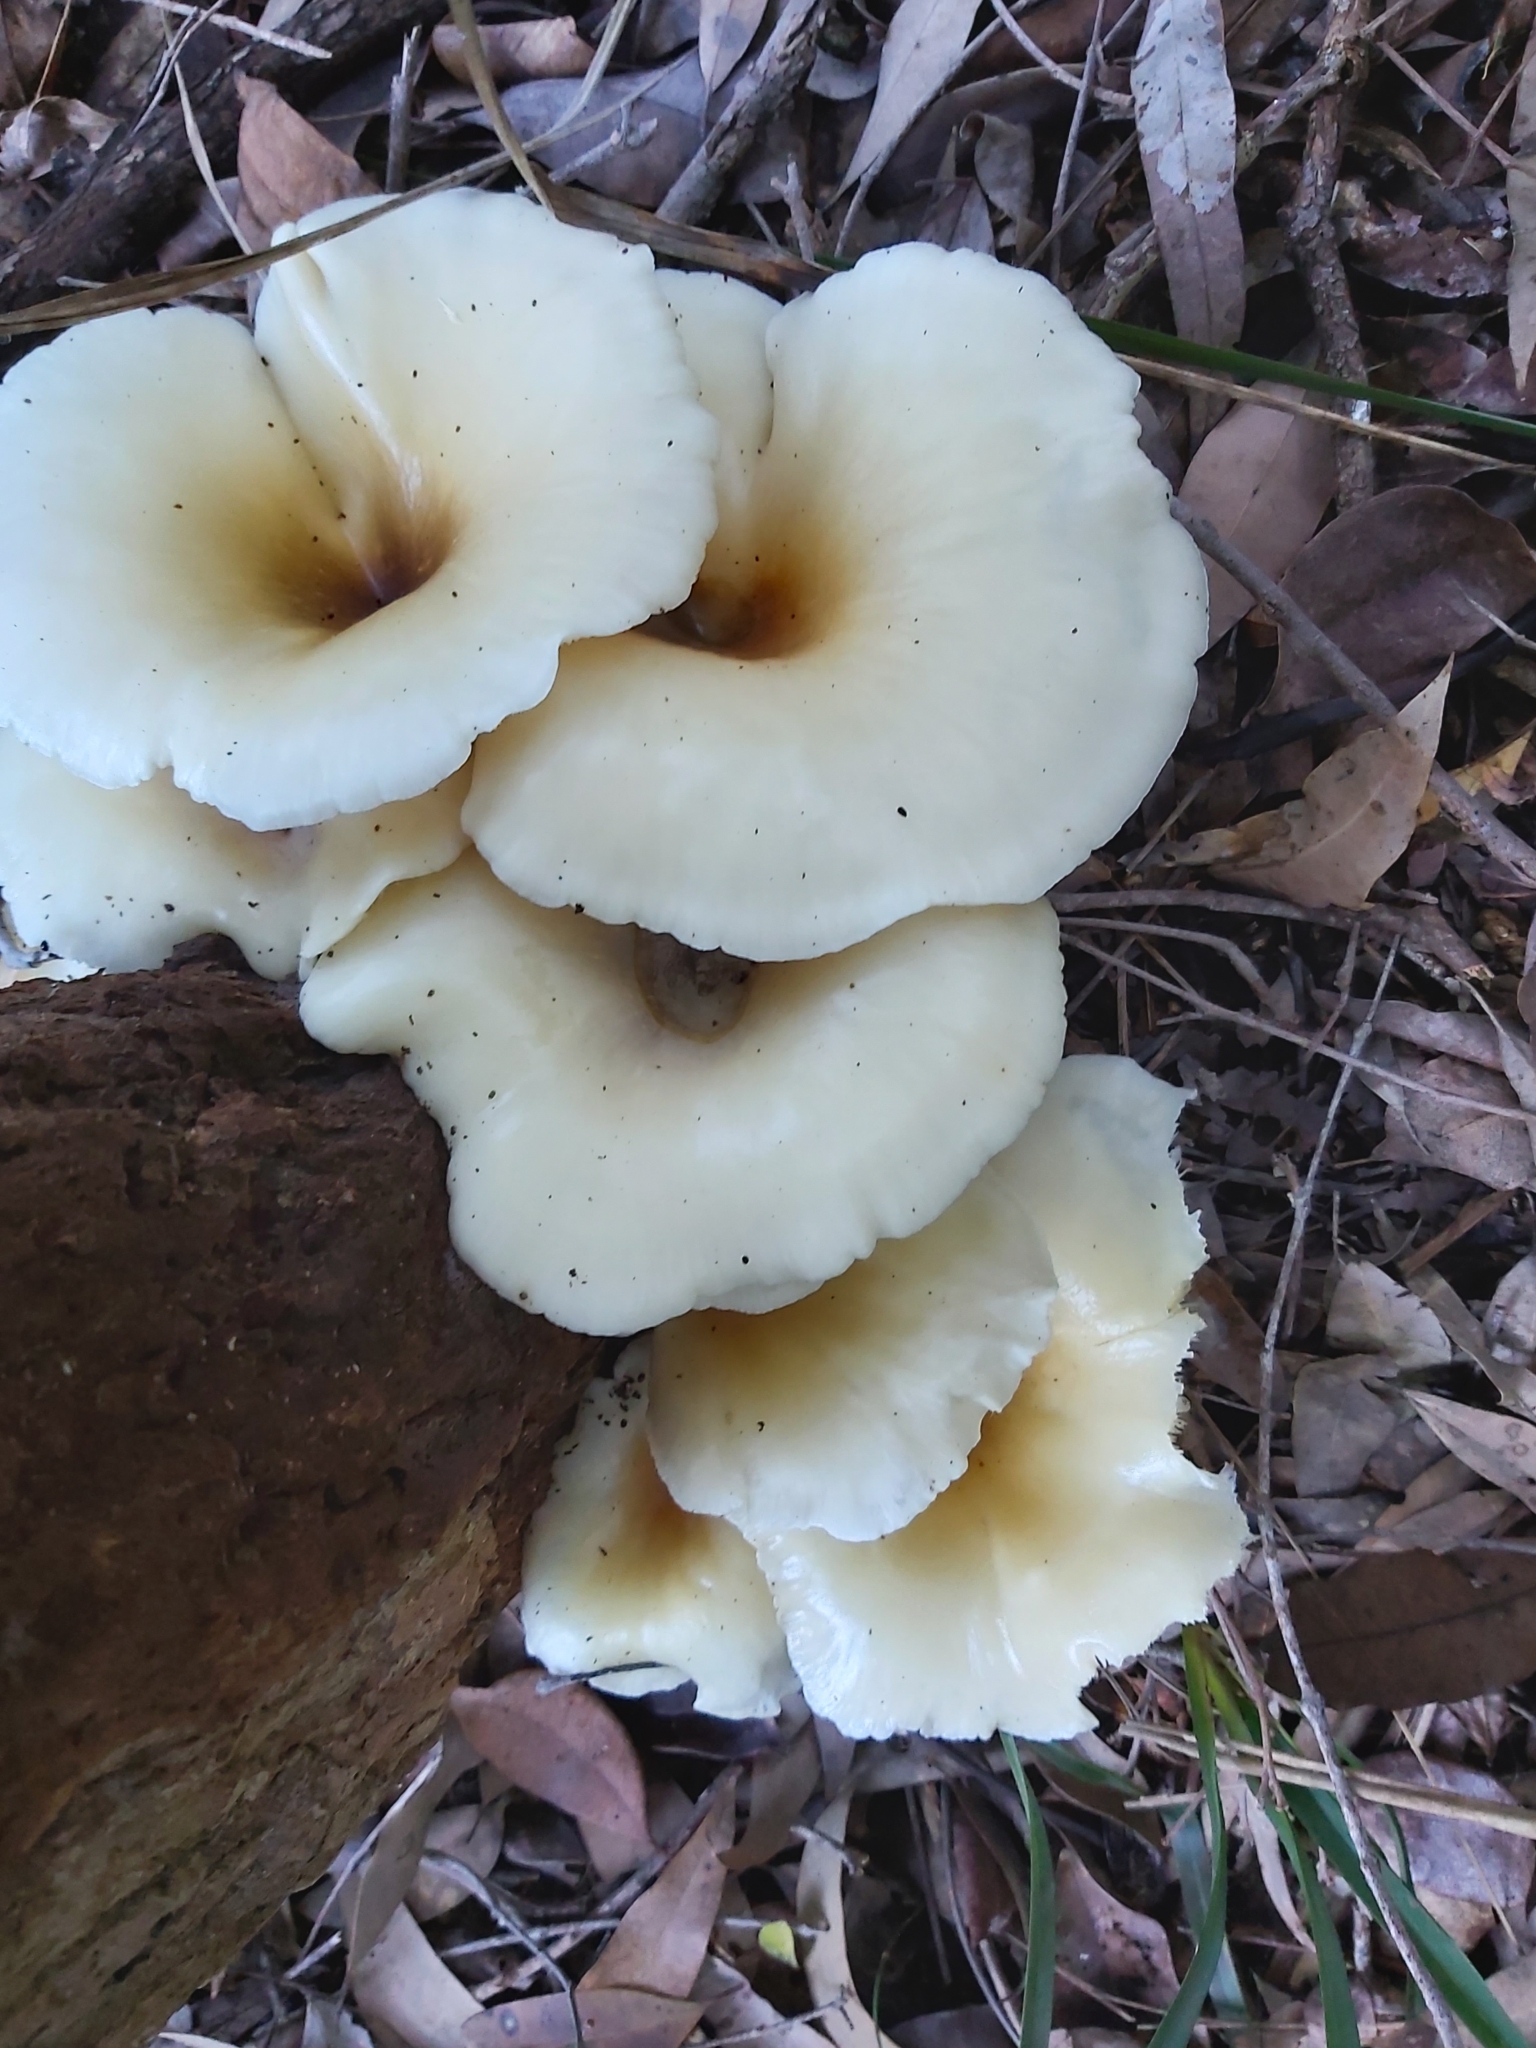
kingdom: Fungi
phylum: Basidiomycota
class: Agaricomycetes
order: Agaricales
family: Omphalotaceae
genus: Omphalotus
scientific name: Omphalotus nidiformis
